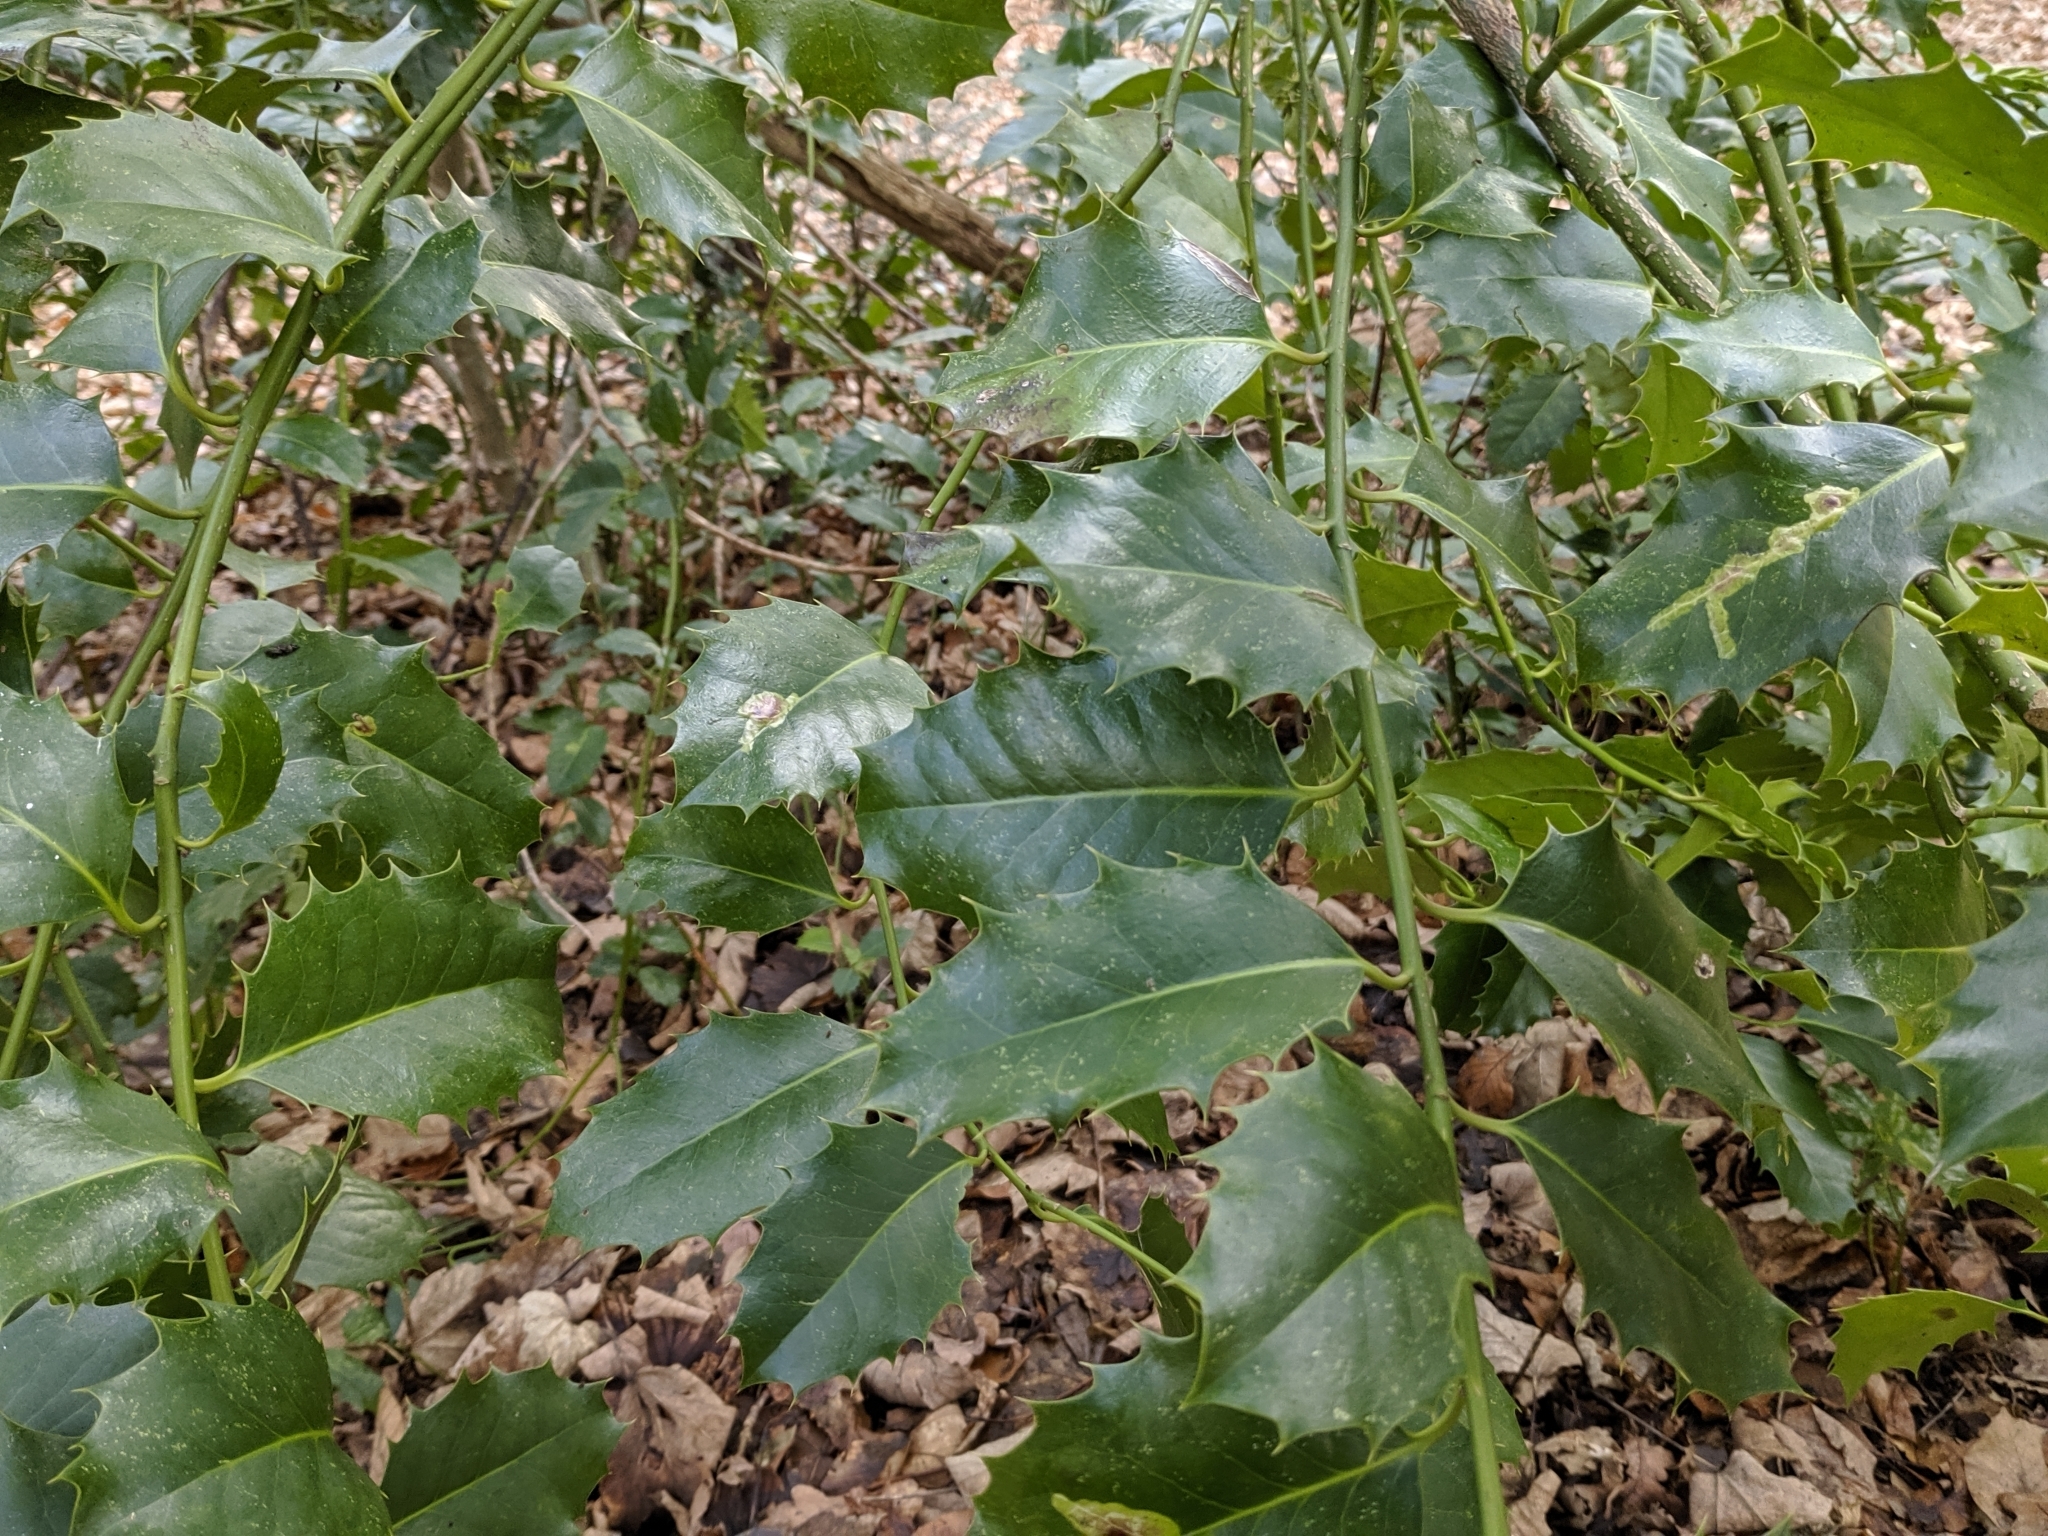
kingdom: Plantae
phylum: Tracheophyta
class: Magnoliopsida
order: Aquifoliales
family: Aquifoliaceae
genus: Ilex
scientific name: Ilex aquifolium
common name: English holly
